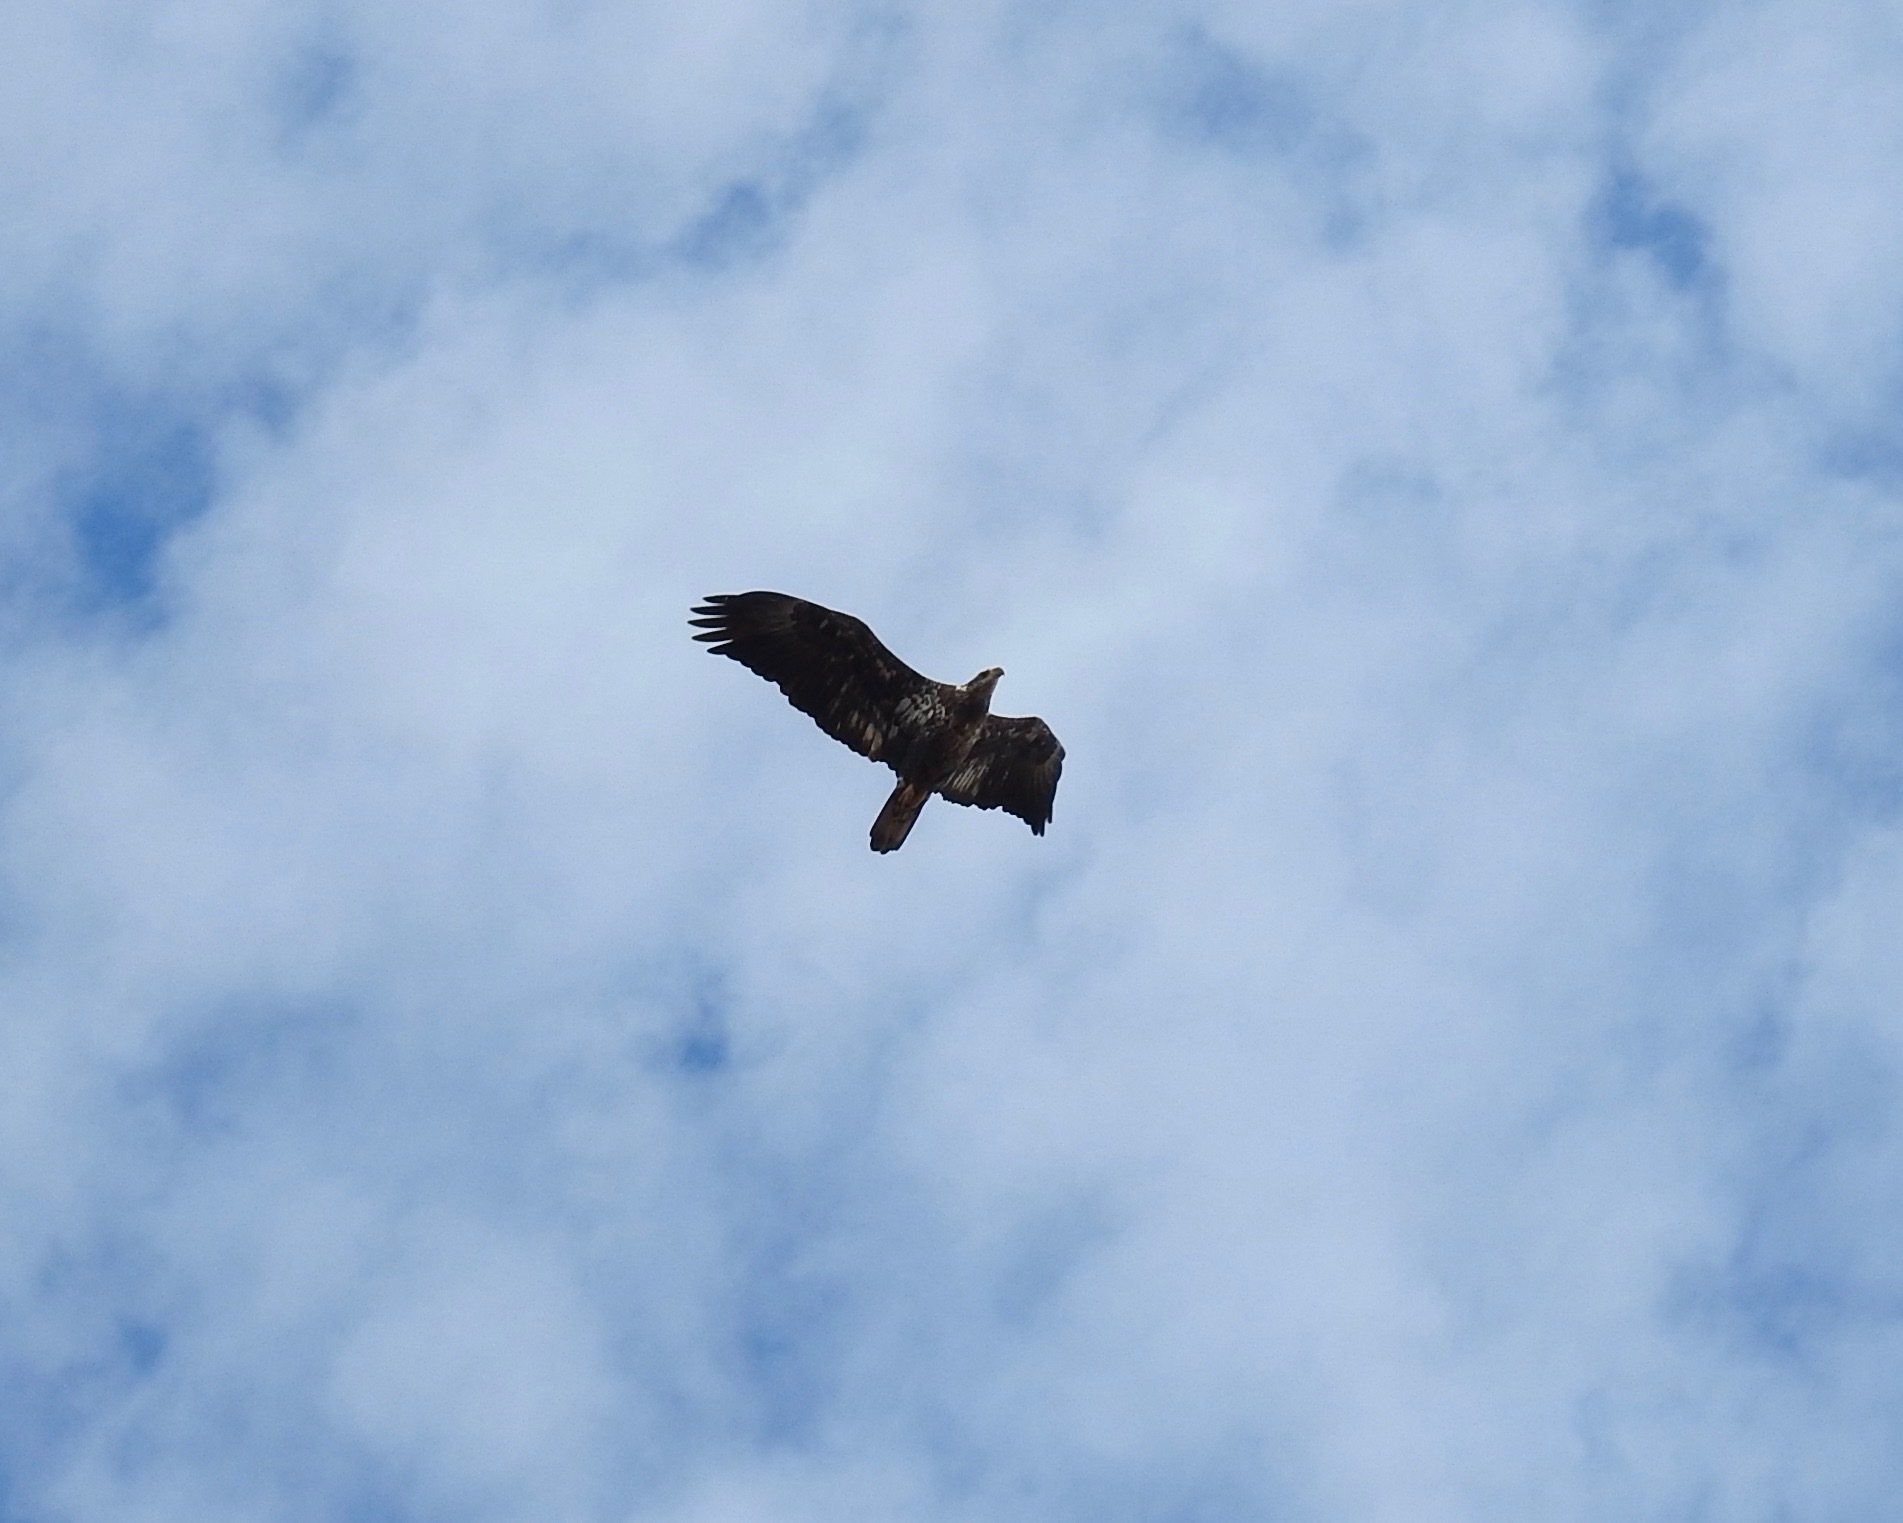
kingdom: Animalia
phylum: Chordata
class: Aves
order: Accipitriformes
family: Accipitridae
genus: Haliaeetus
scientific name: Haliaeetus leucocephalus
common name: Bald eagle
